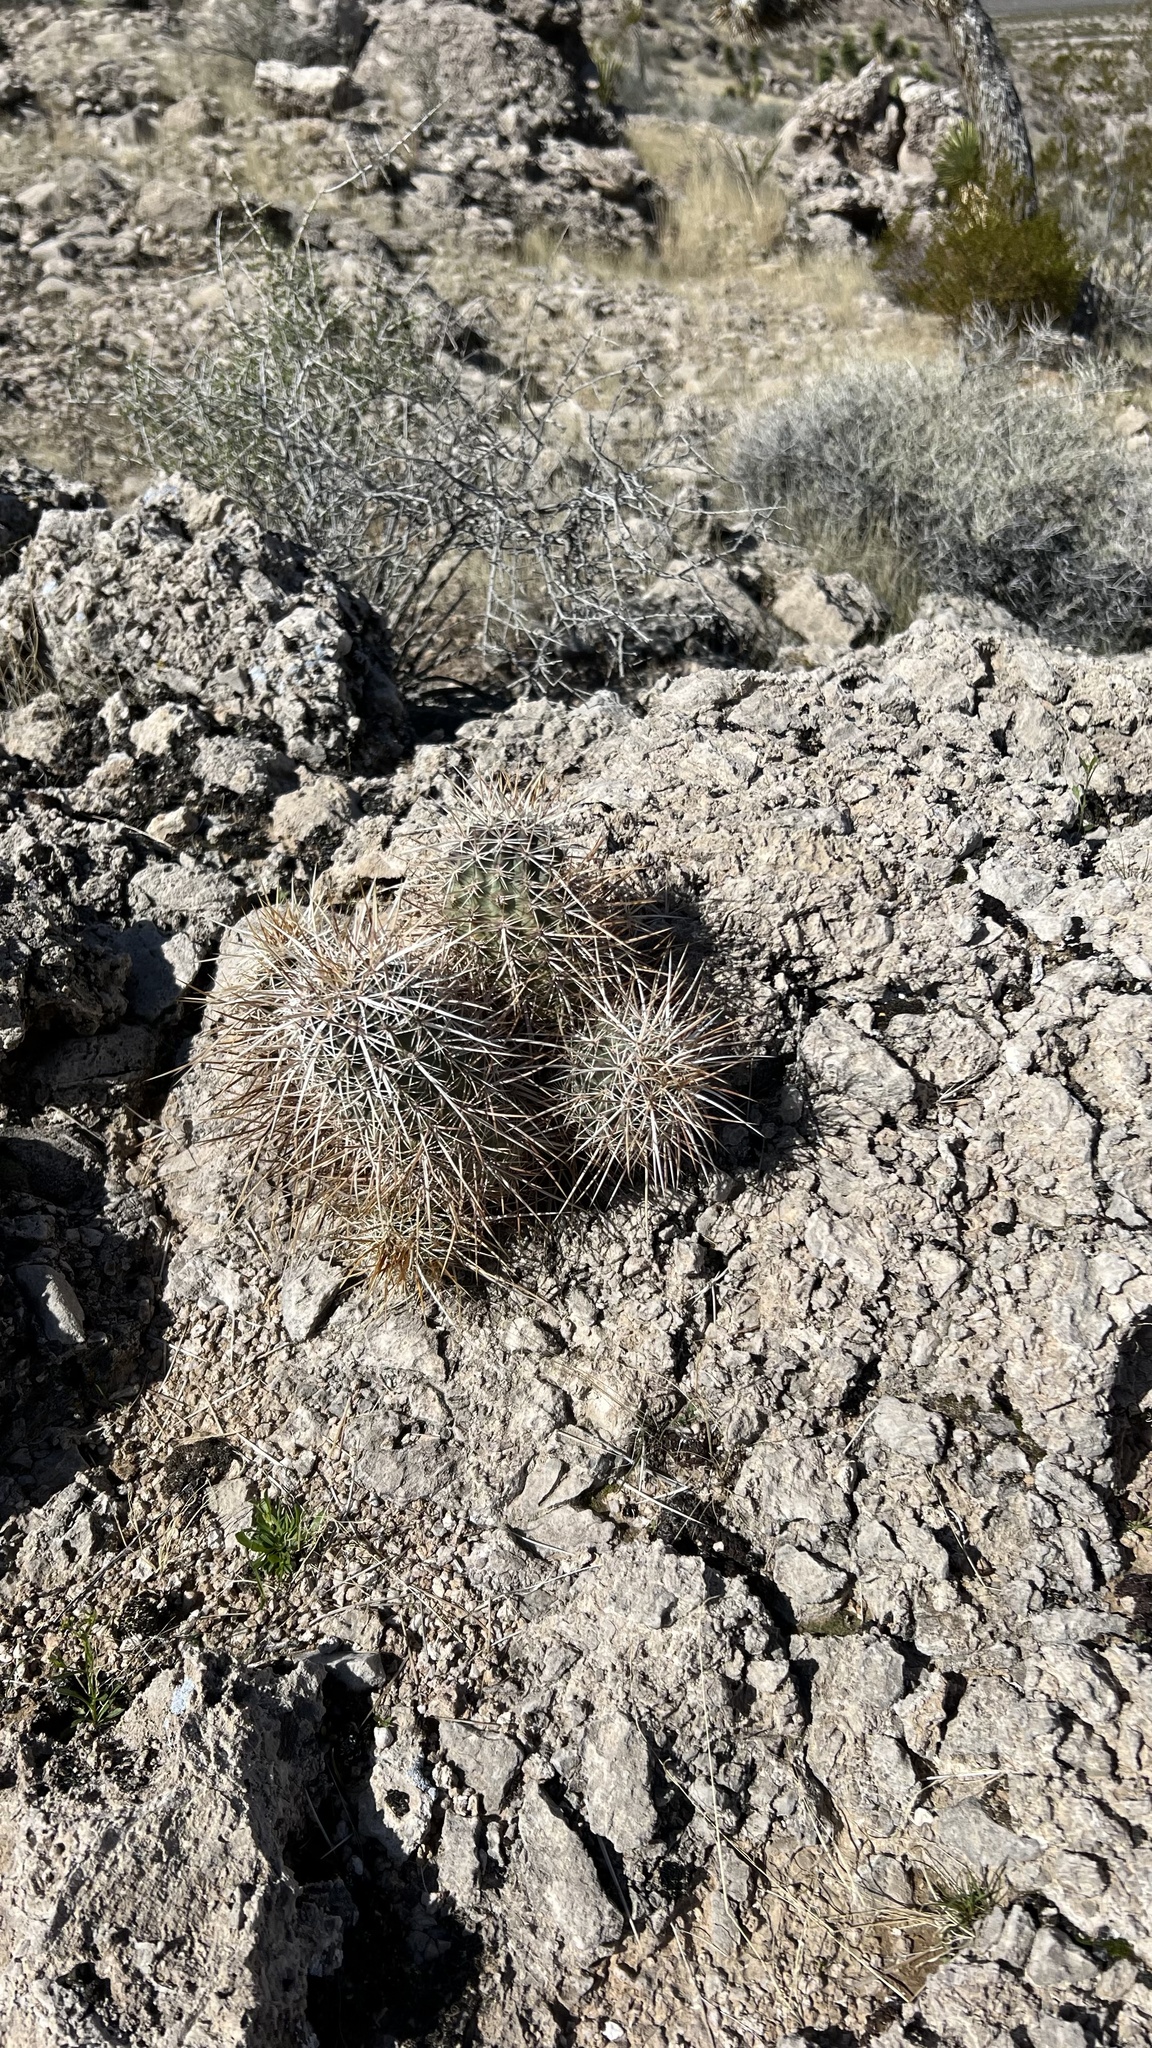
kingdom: Plantae
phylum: Tracheophyta
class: Magnoliopsida
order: Caryophyllales
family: Cactaceae
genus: Echinocereus
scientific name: Echinocereus engelmannii
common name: Engelmann's hedgehog cactus
